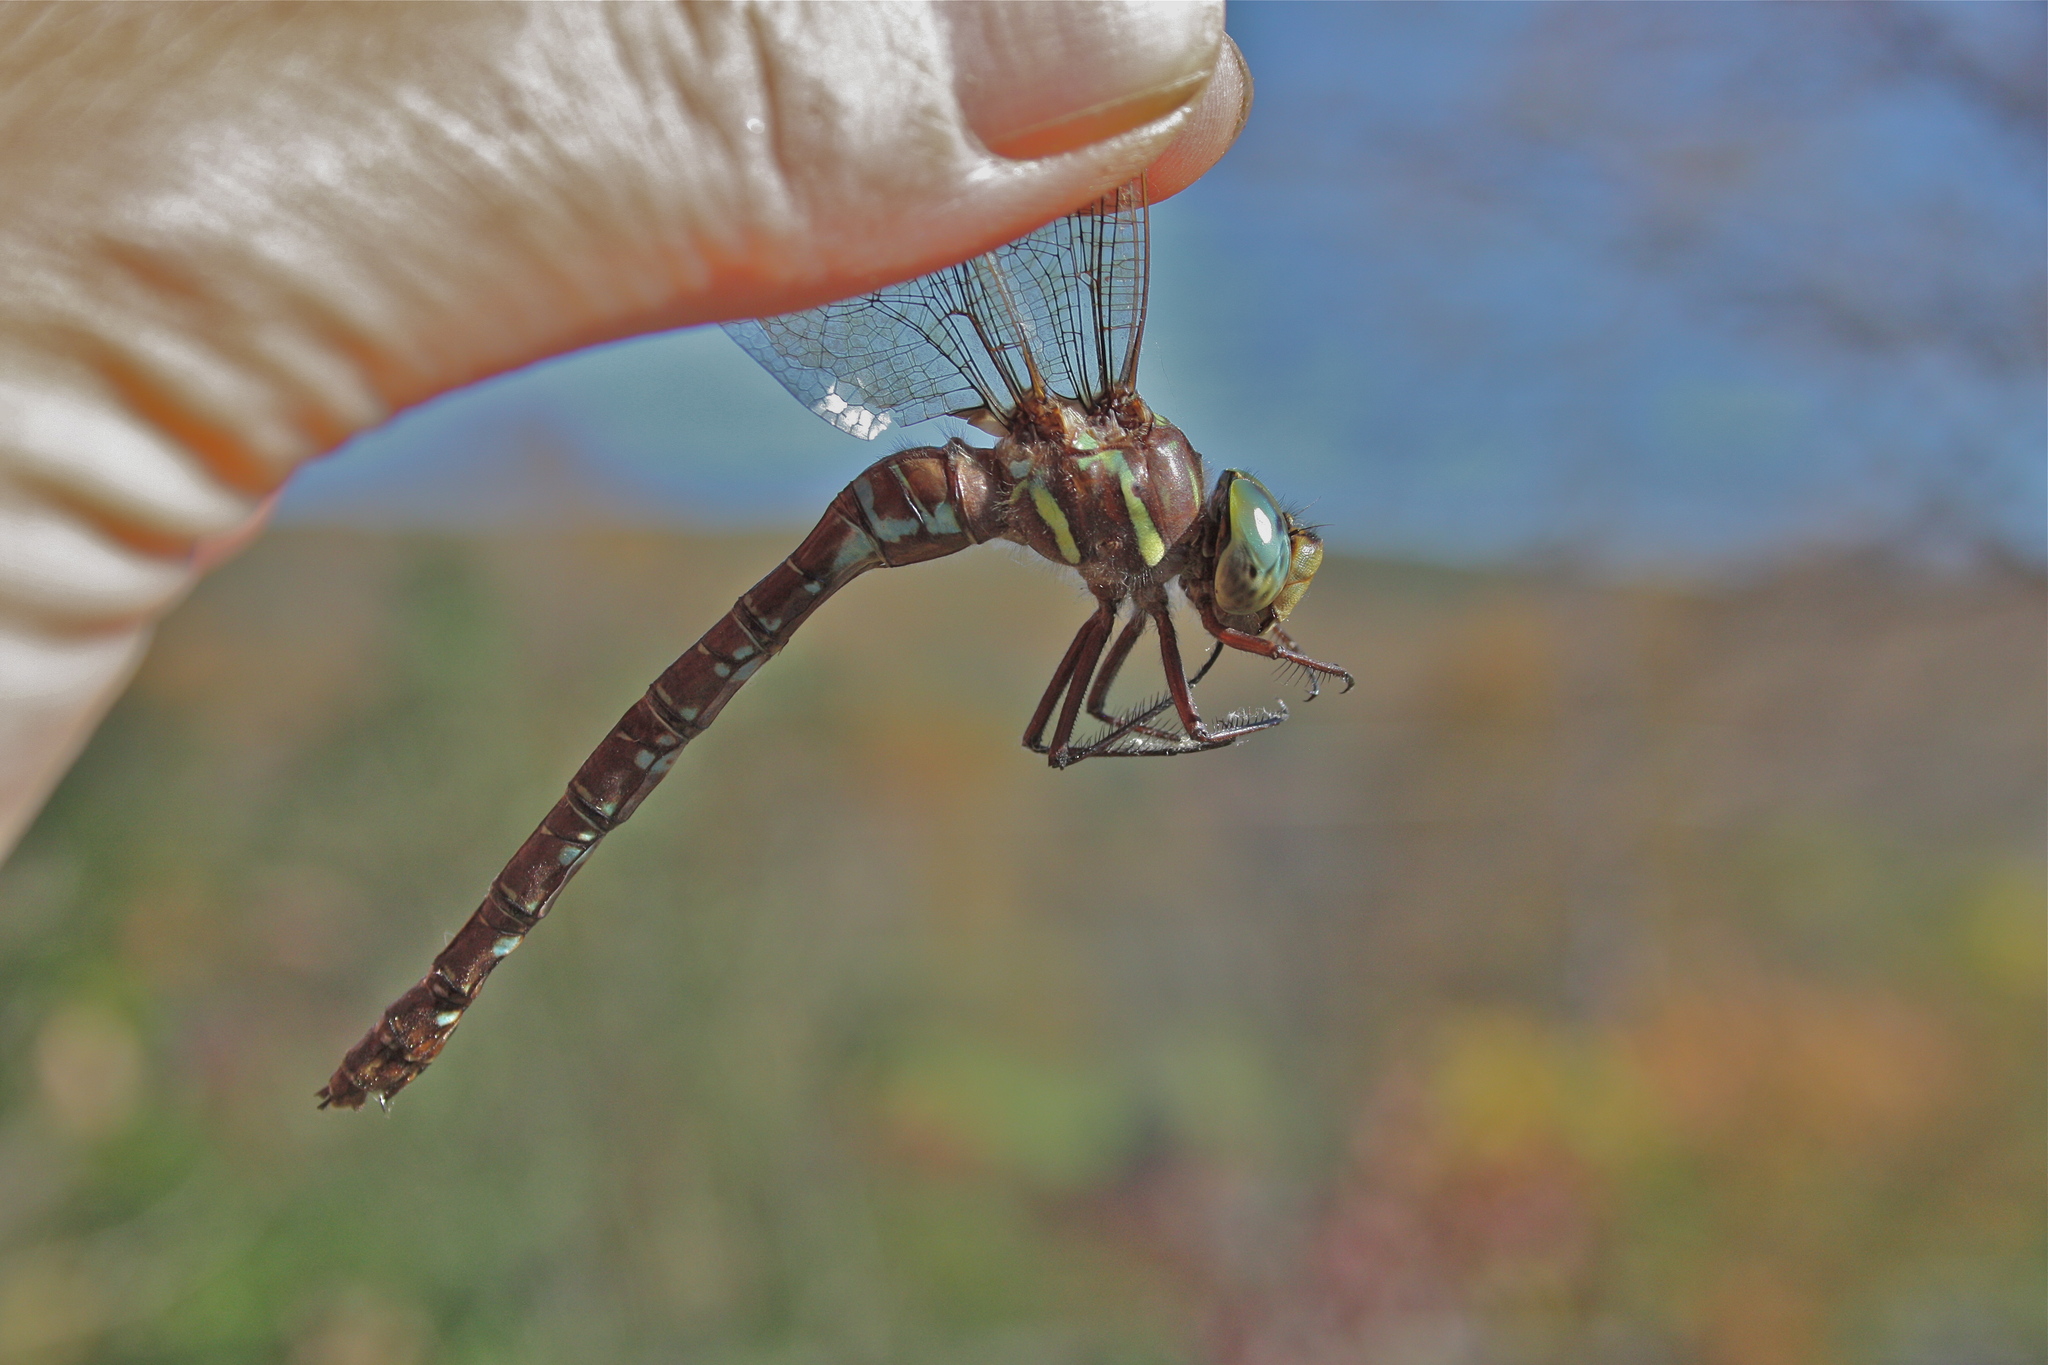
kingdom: Animalia
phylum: Arthropoda
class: Insecta
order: Odonata
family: Aeshnidae
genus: Aeshna
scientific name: Aeshna umbrosa
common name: Shadow darner
